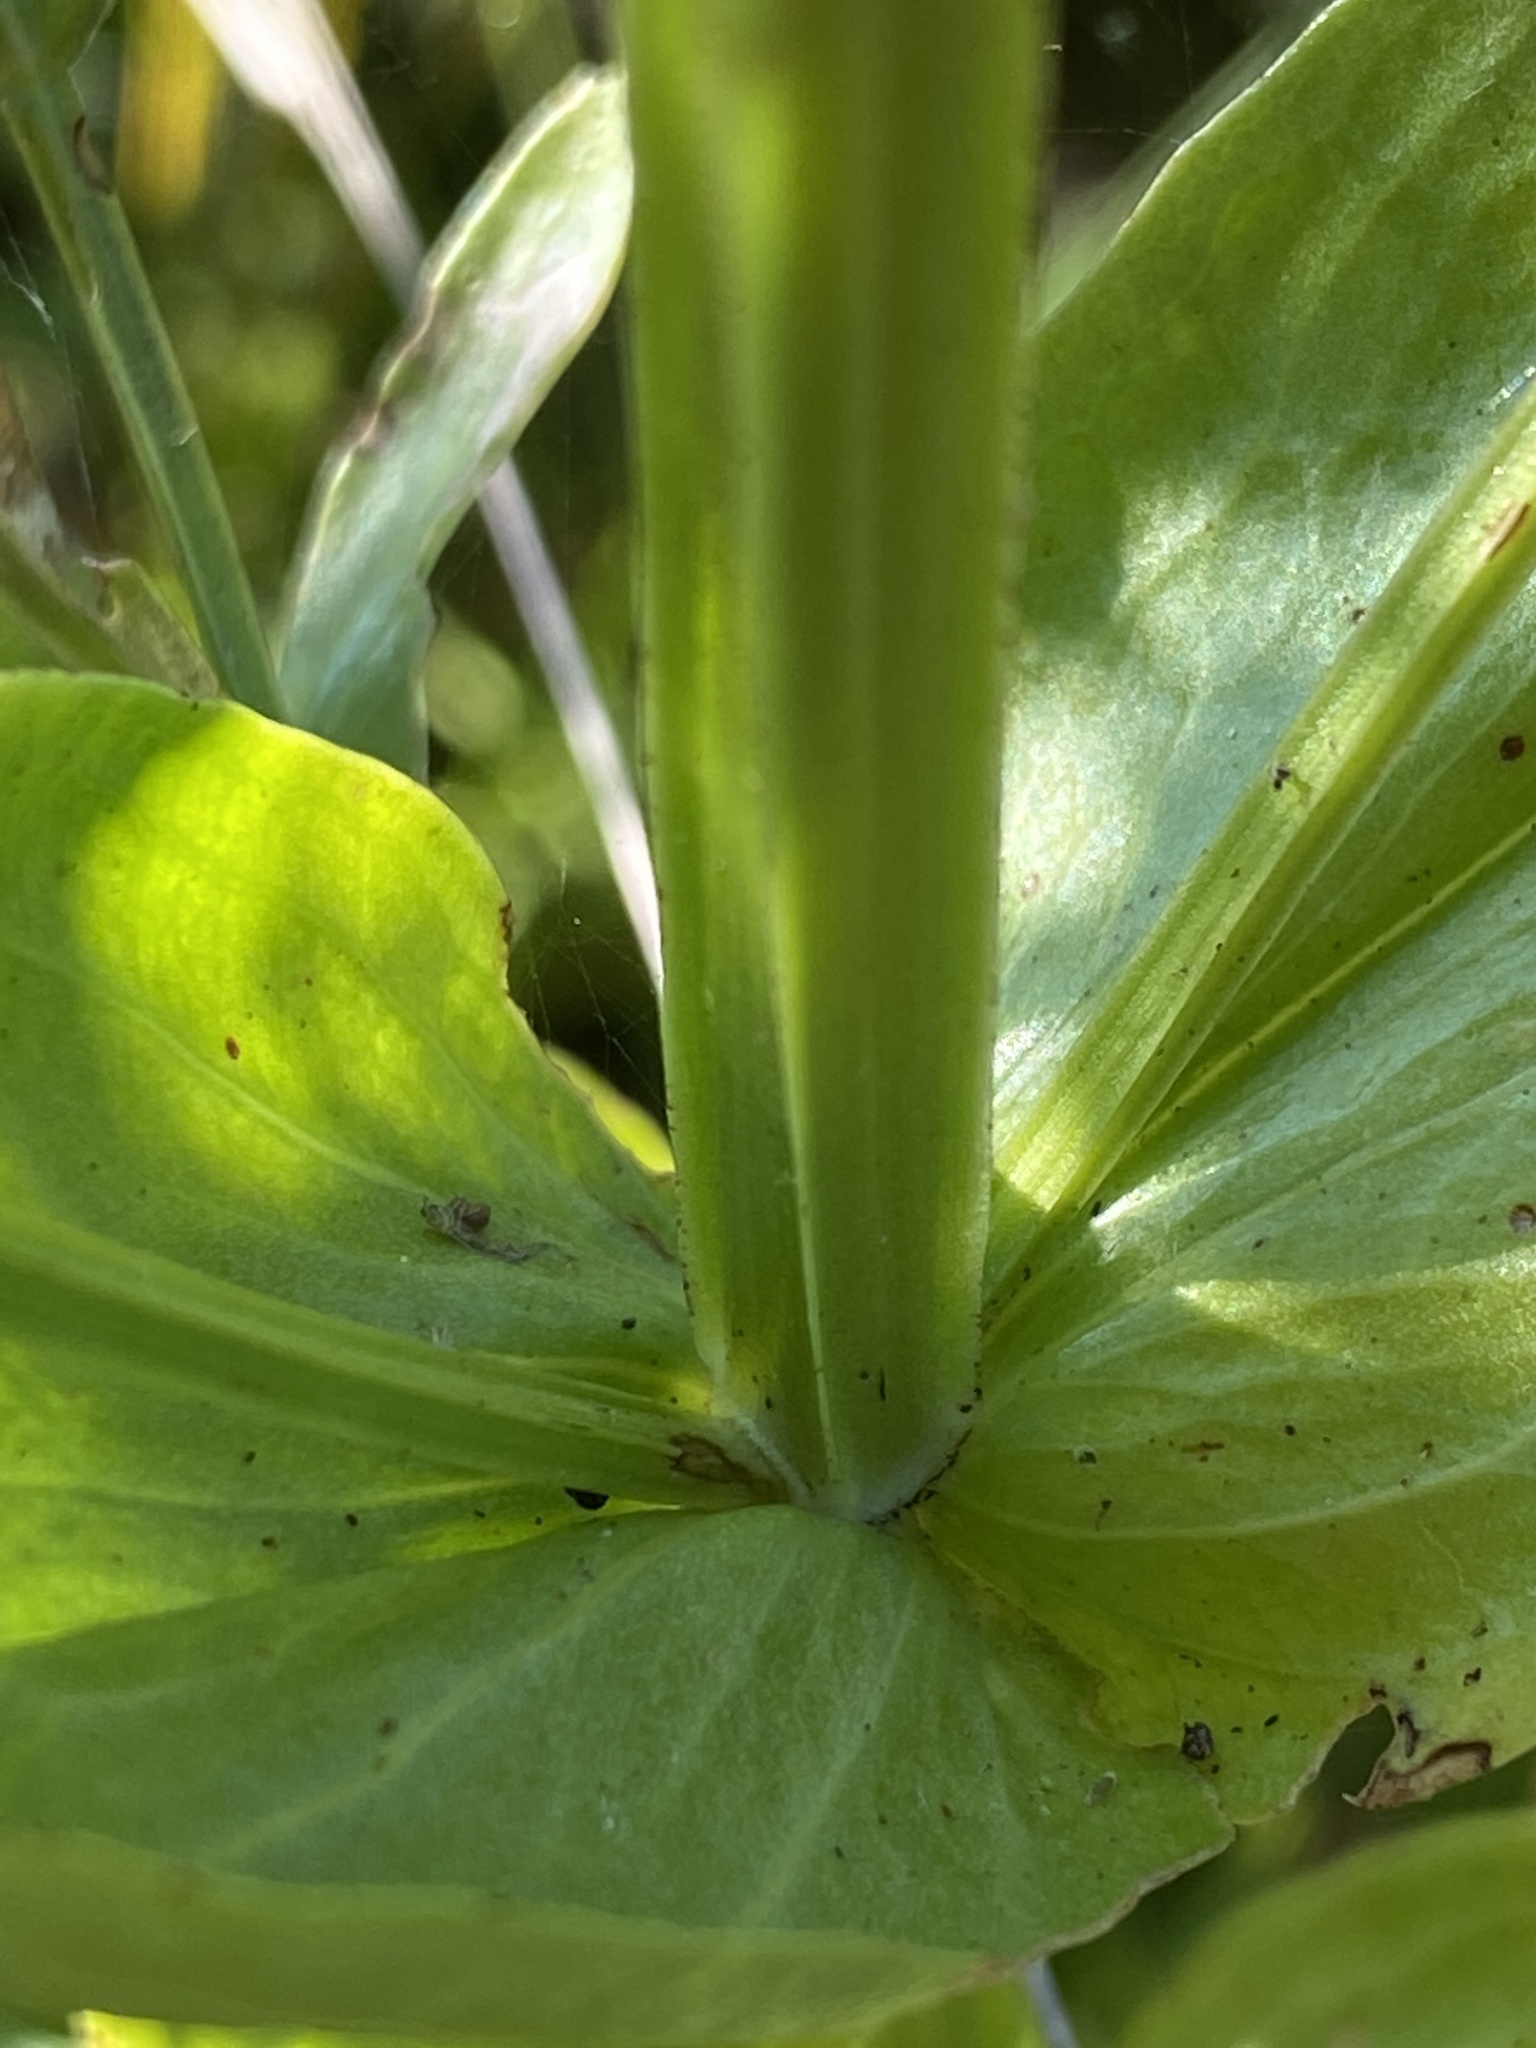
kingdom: Plantae
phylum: Tracheophyta
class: Magnoliopsida
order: Gentianales
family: Gentianaceae
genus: Sabatia
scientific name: Sabatia angularis
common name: Rose-pink
